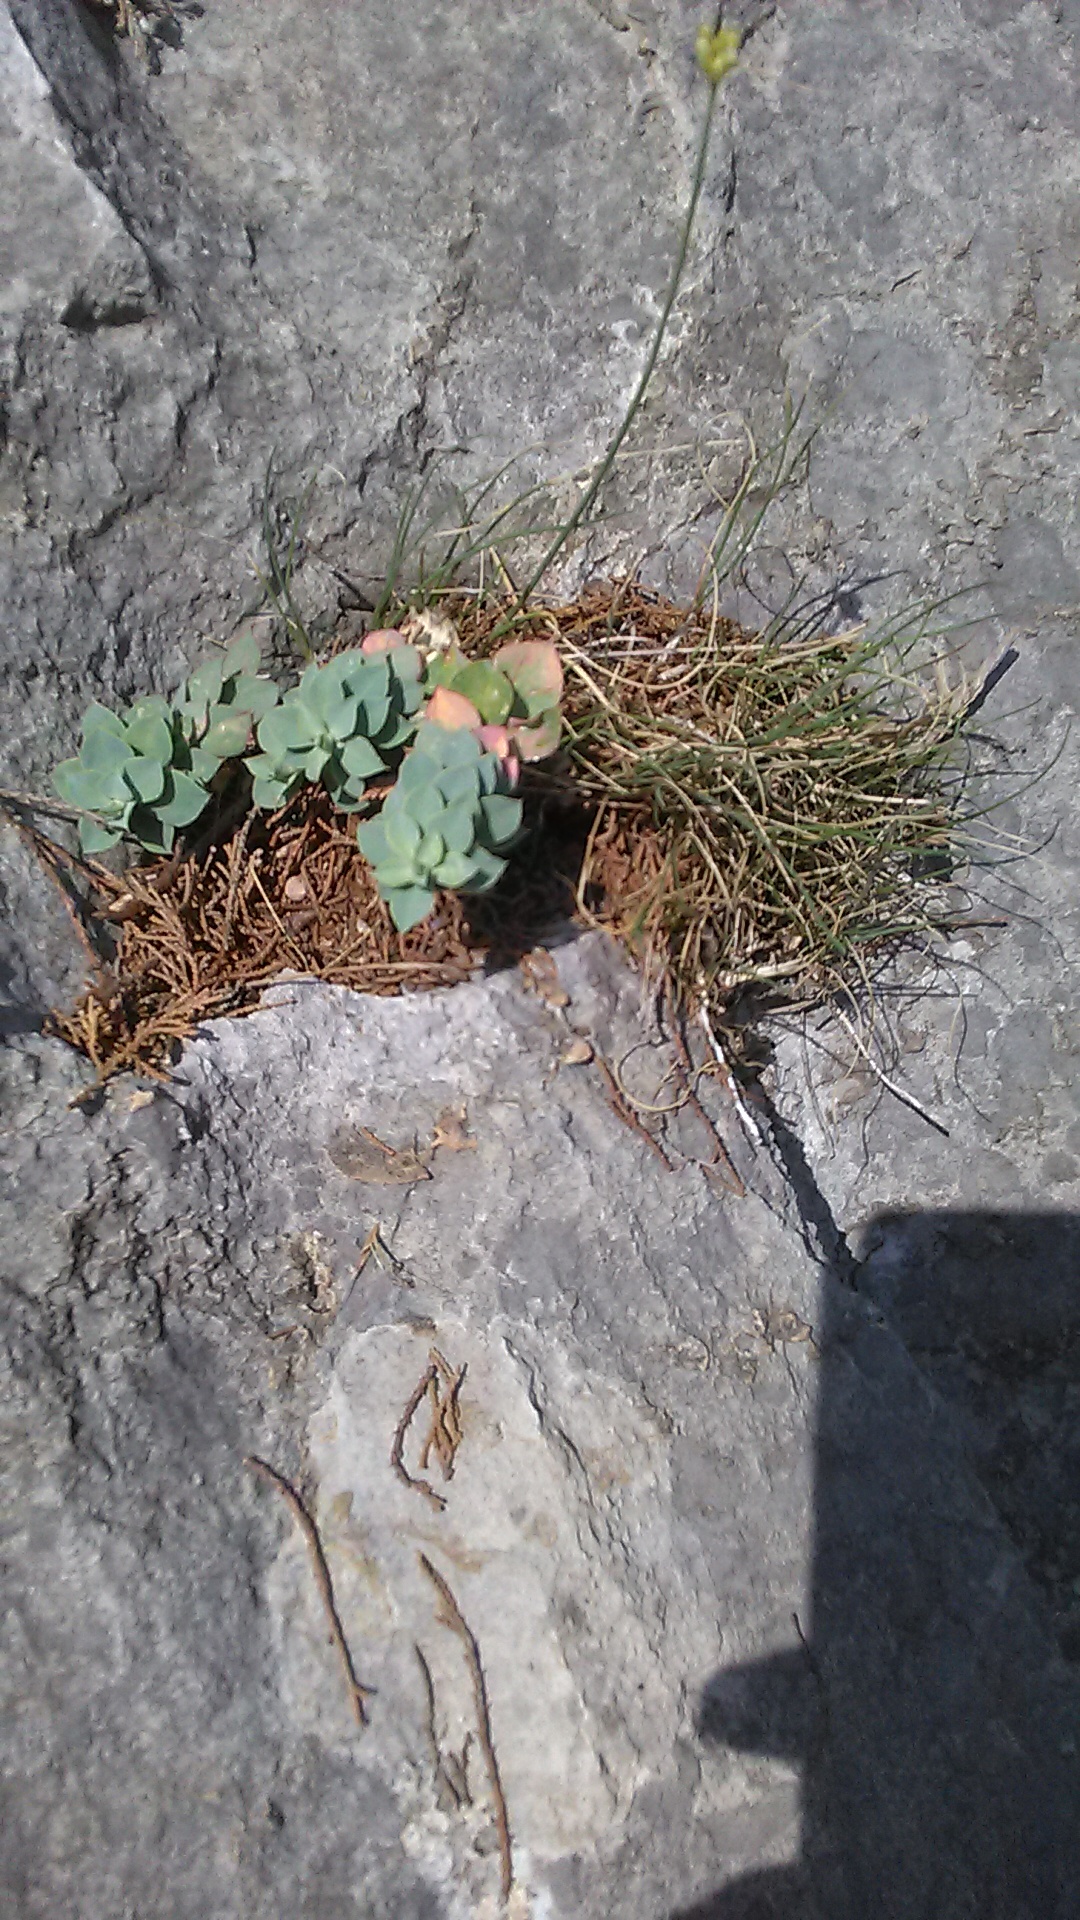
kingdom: Plantae
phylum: Tracheophyta
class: Magnoliopsida
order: Malpighiales
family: Euphorbiaceae
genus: Euphorbia
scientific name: Euphorbia myrsinites
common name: Myrtle spurge
